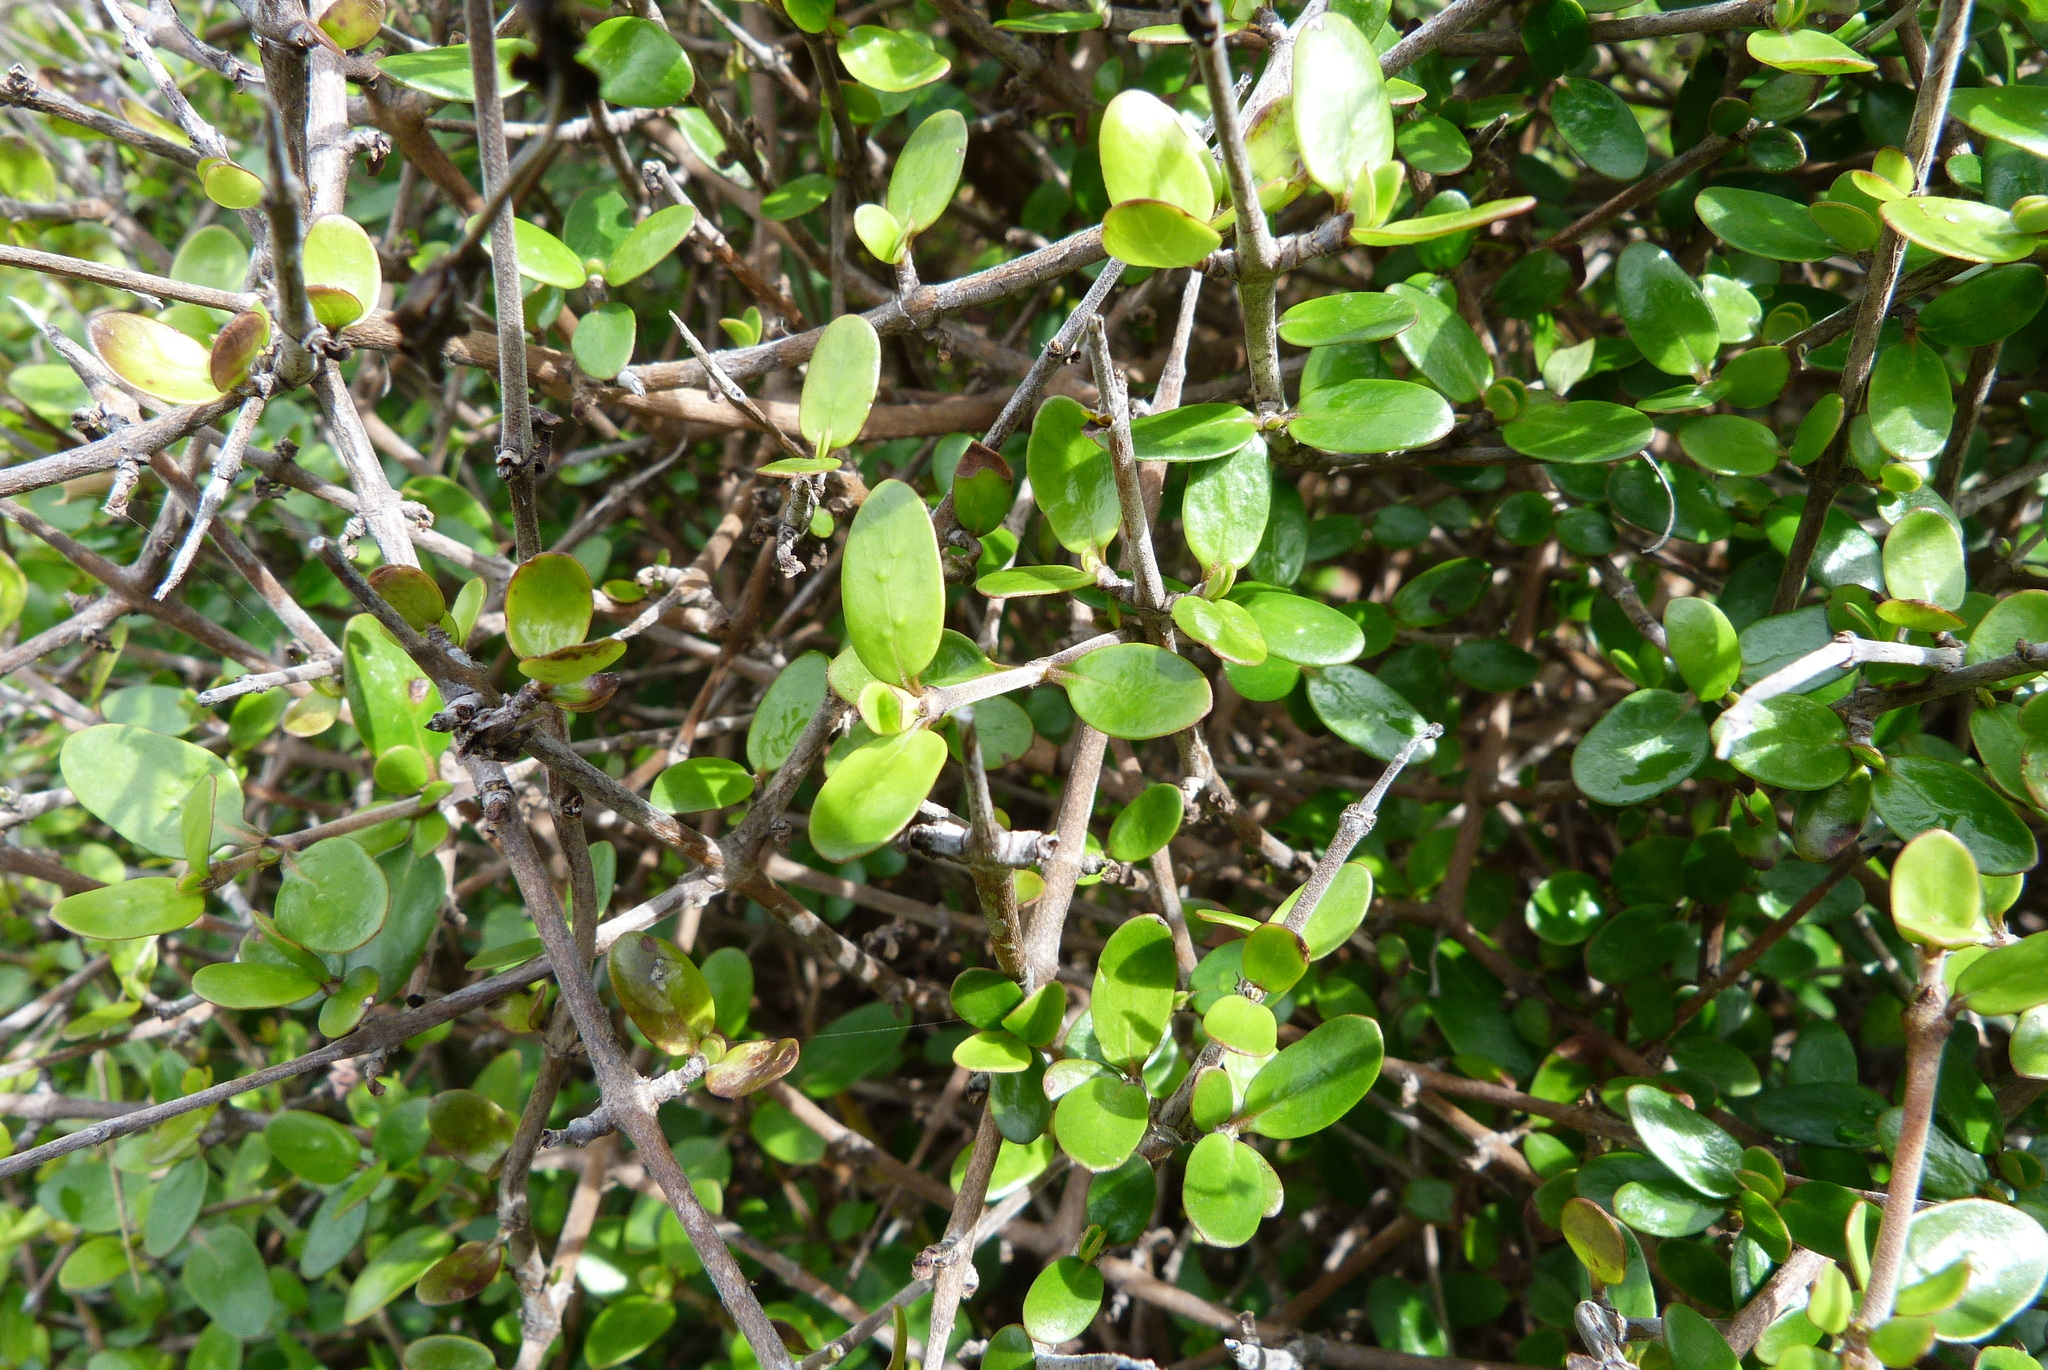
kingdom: Plantae
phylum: Tracheophyta
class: Magnoliopsida
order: Gentianales
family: Rubiaceae
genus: Coprosma
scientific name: Coprosma propinqua
